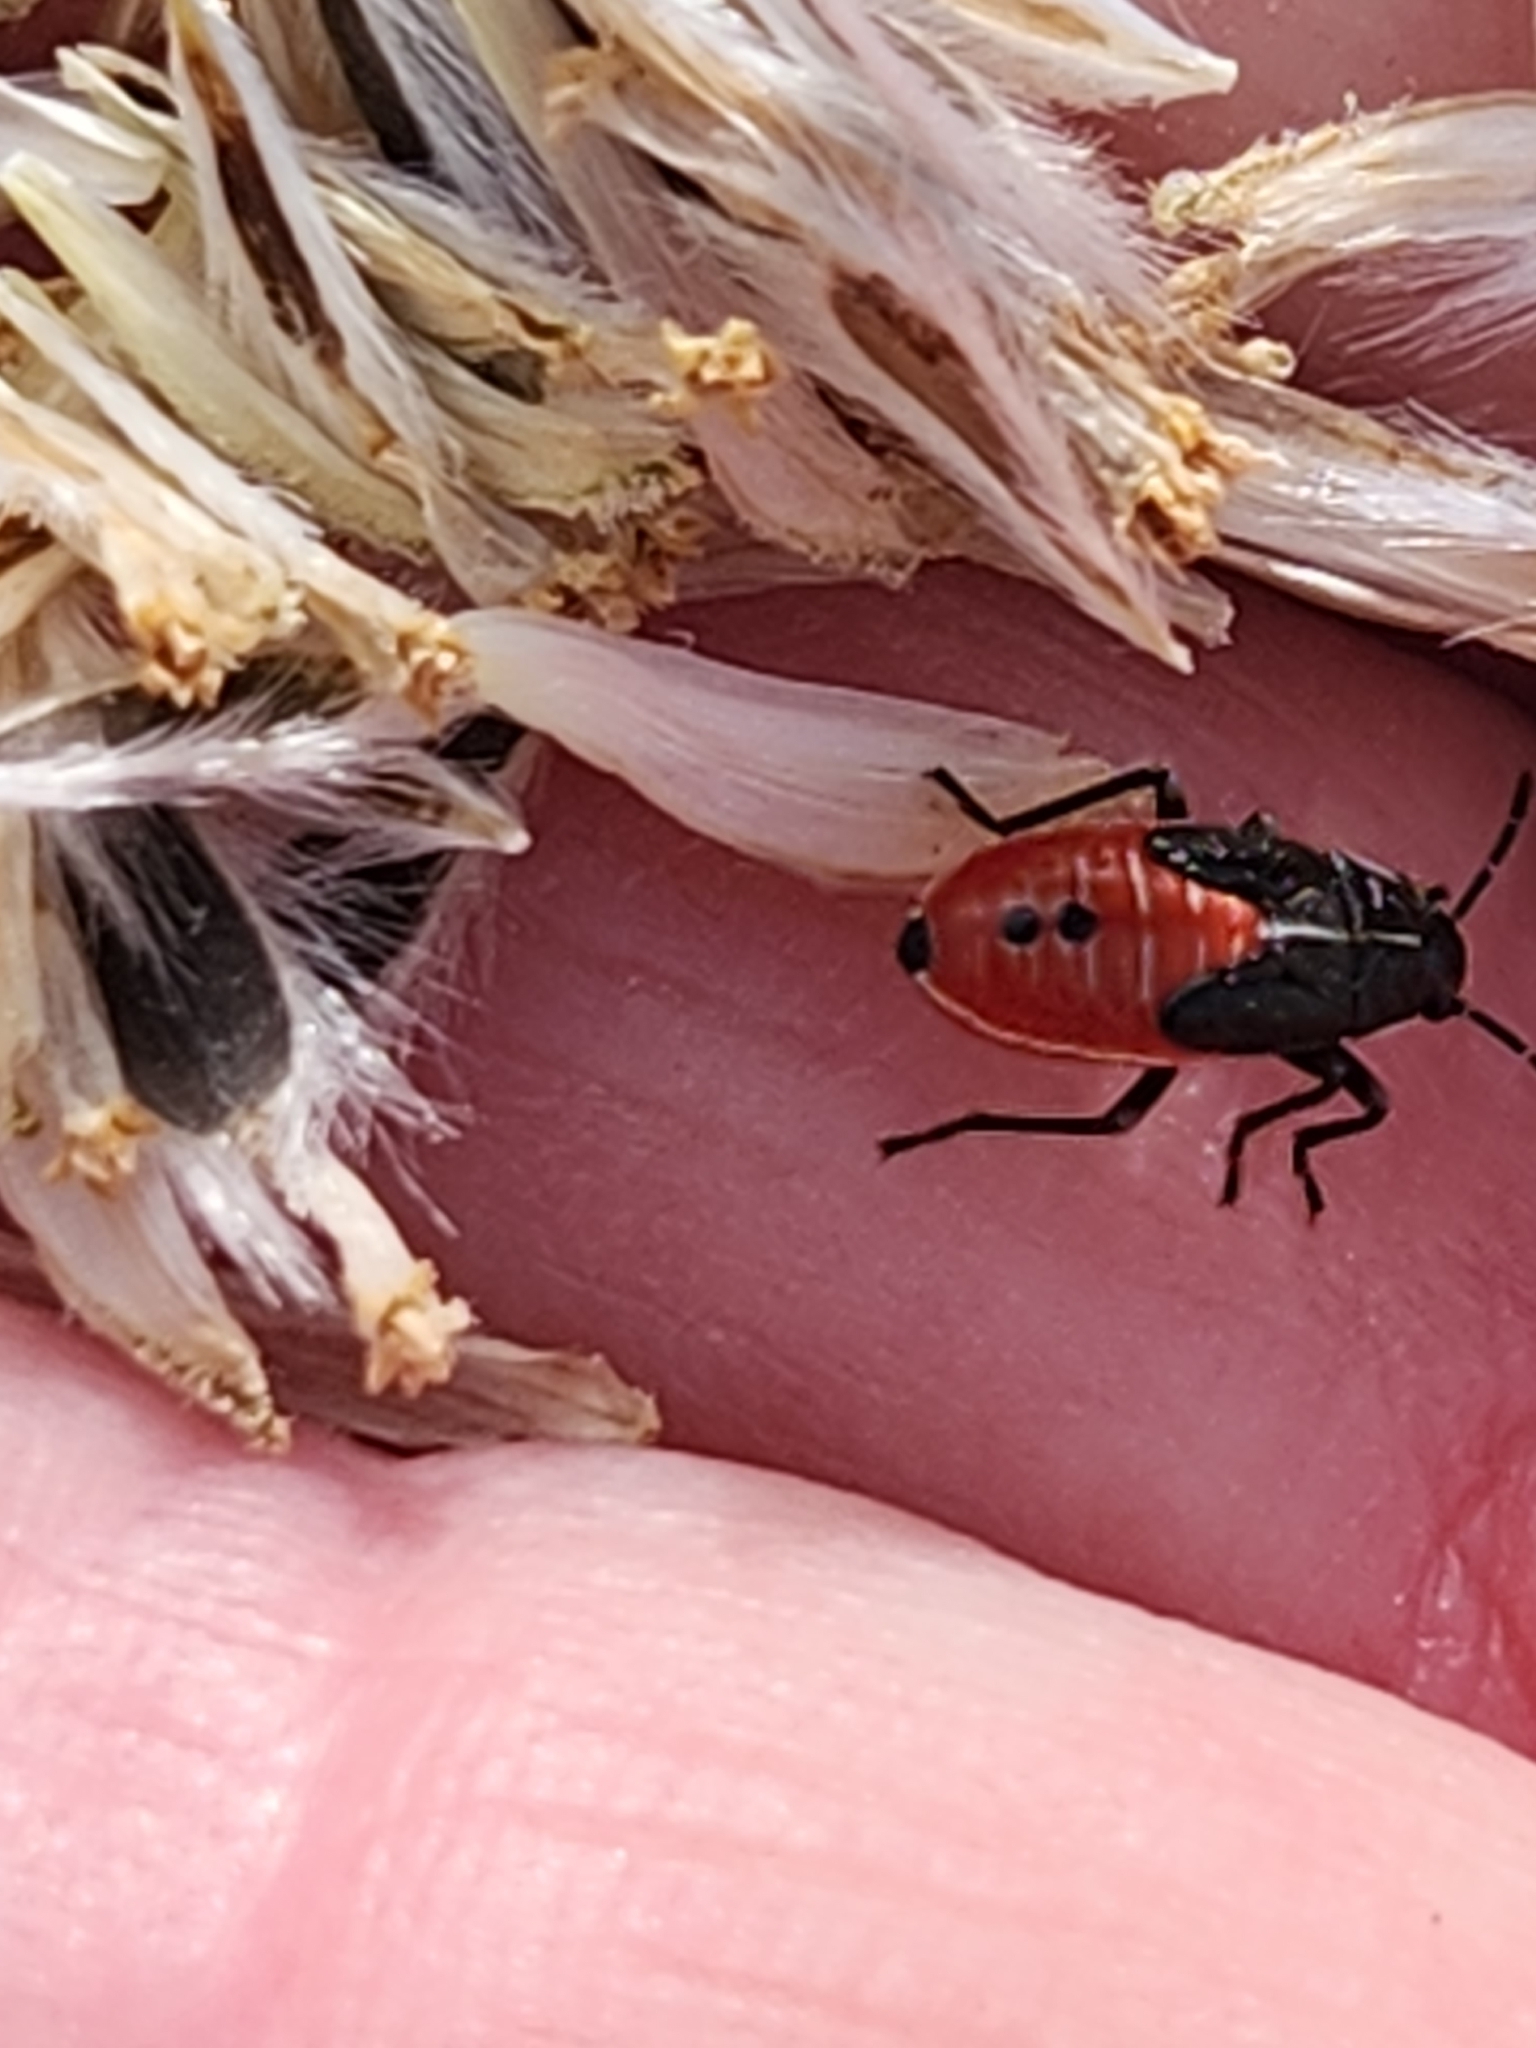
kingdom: Animalia
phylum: Arthropoda
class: Insecta
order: Hemiptera
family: Lygaeidae
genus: Melanopleurus
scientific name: Melanopleurus
